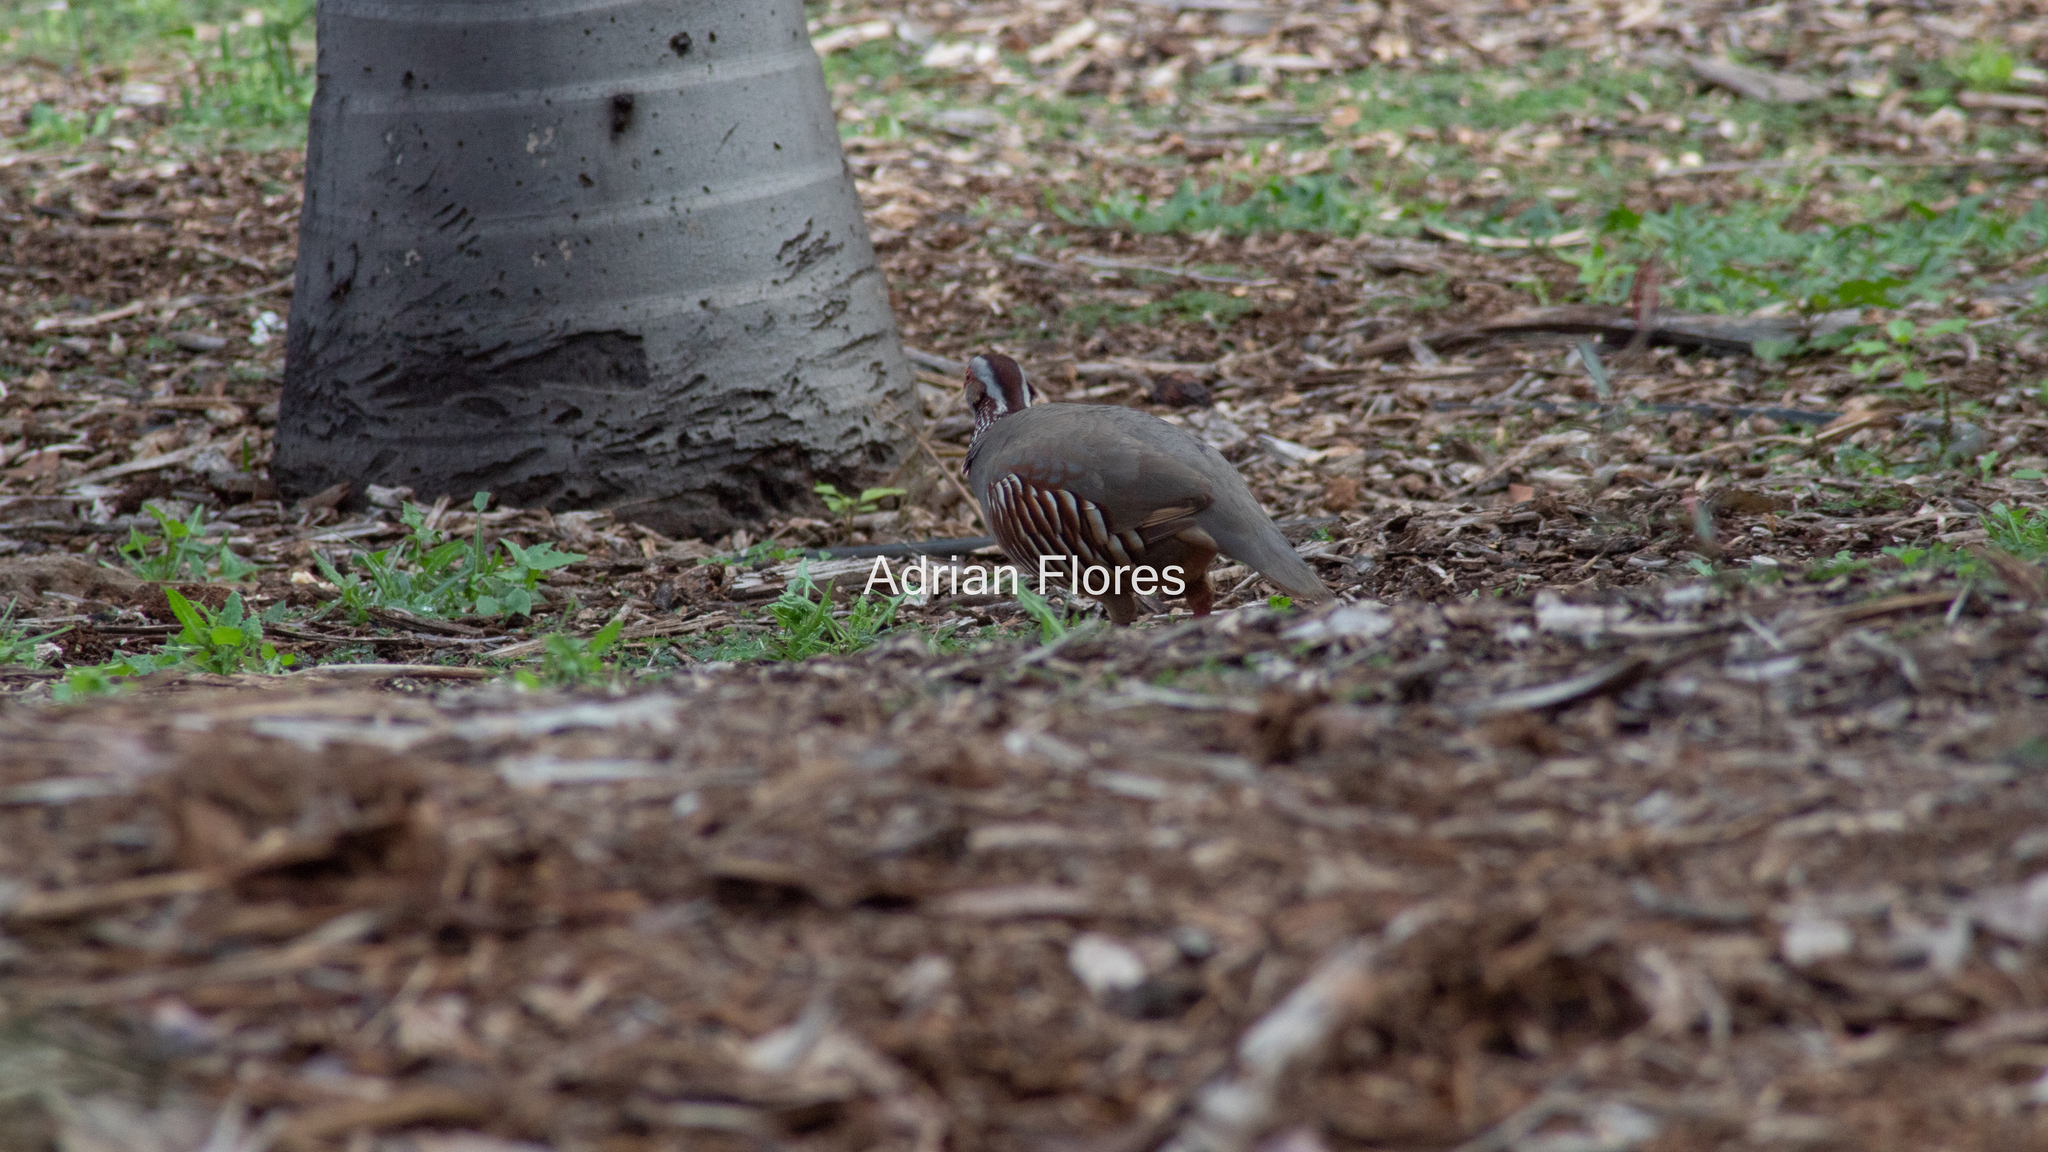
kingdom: Animalia
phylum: Chordata
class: Aves
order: Galliformes
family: Phasianidae
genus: Alectoris
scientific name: Alectoris barbara
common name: Barbary partridge
